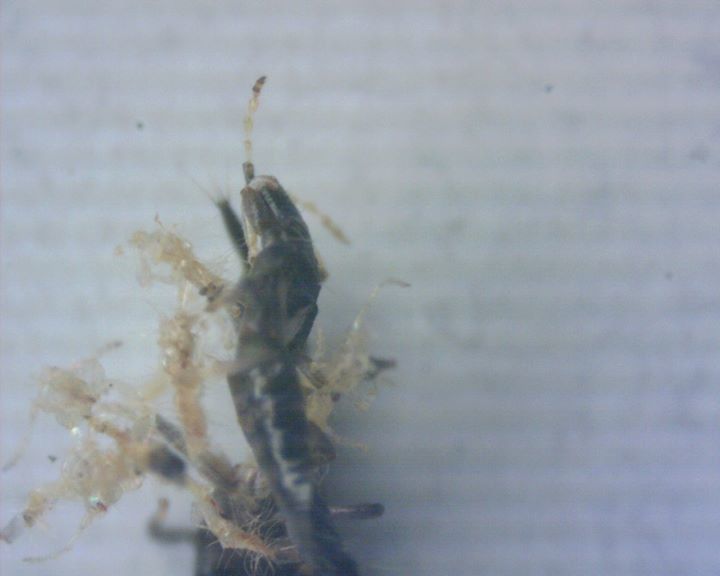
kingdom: Animalia
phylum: Arthropoda
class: Insecta
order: Thysanoptera
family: Phlaeothripidae
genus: Gynaikothrips
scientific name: Gynaikothrips ficorum
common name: Cuban laurel thrips
